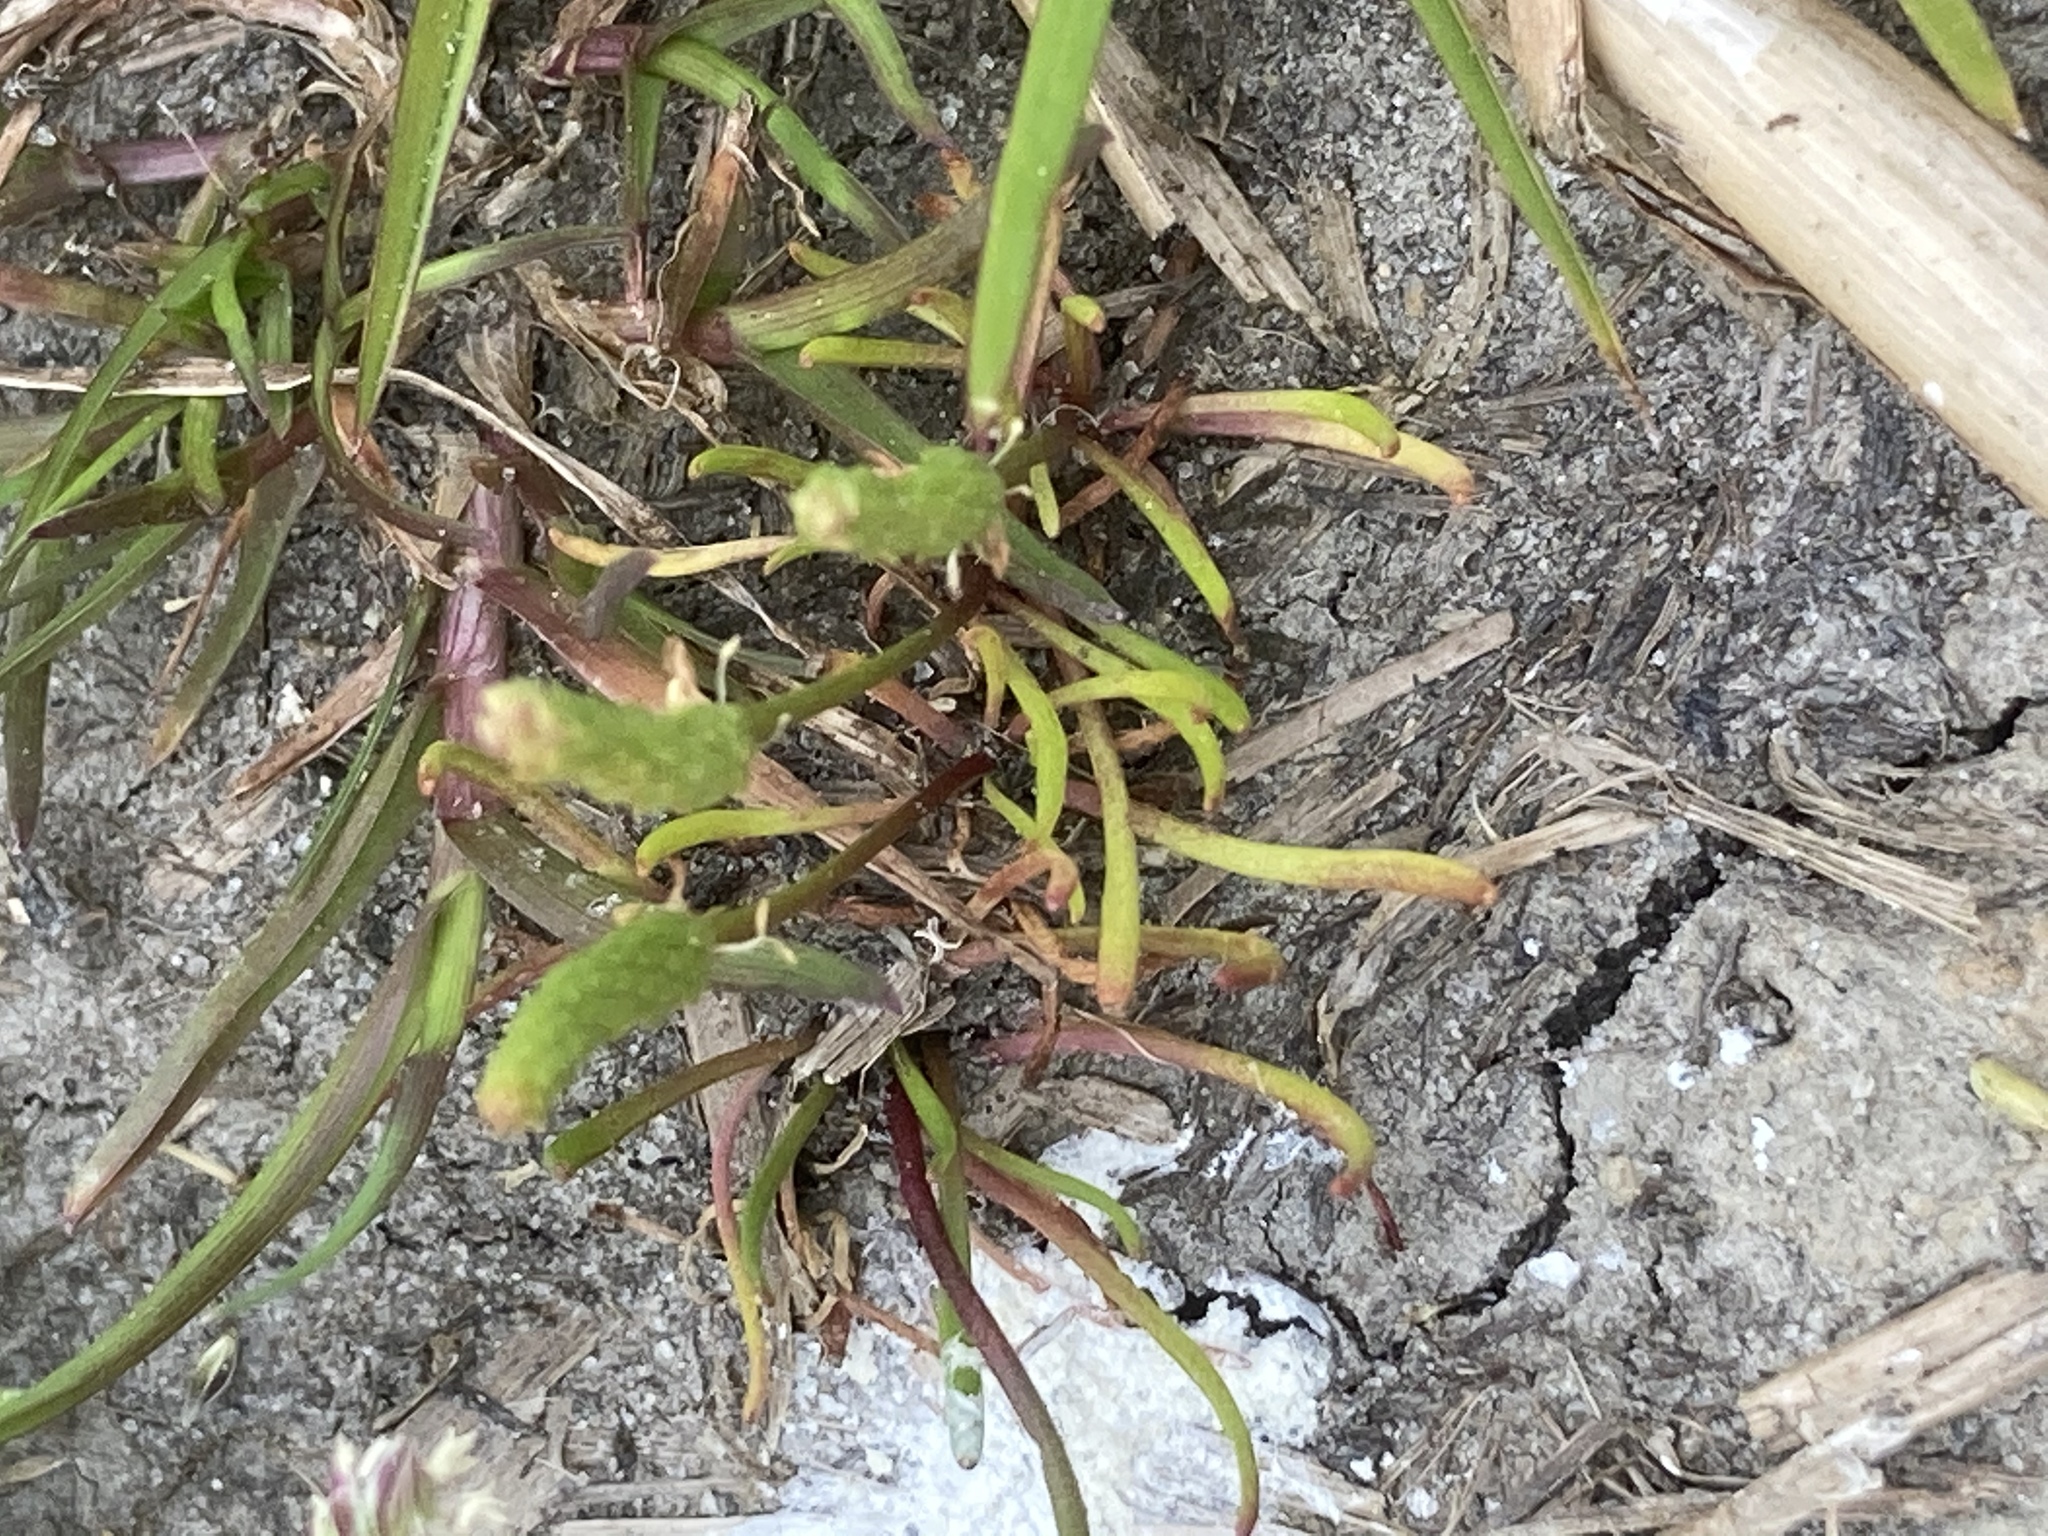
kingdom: Plantae
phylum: Tracheophyta
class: Magnoliopsida
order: Ranunculales
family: Ranunculaceae
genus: Myosurus
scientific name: Myosurus minimus
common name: Mousetail
